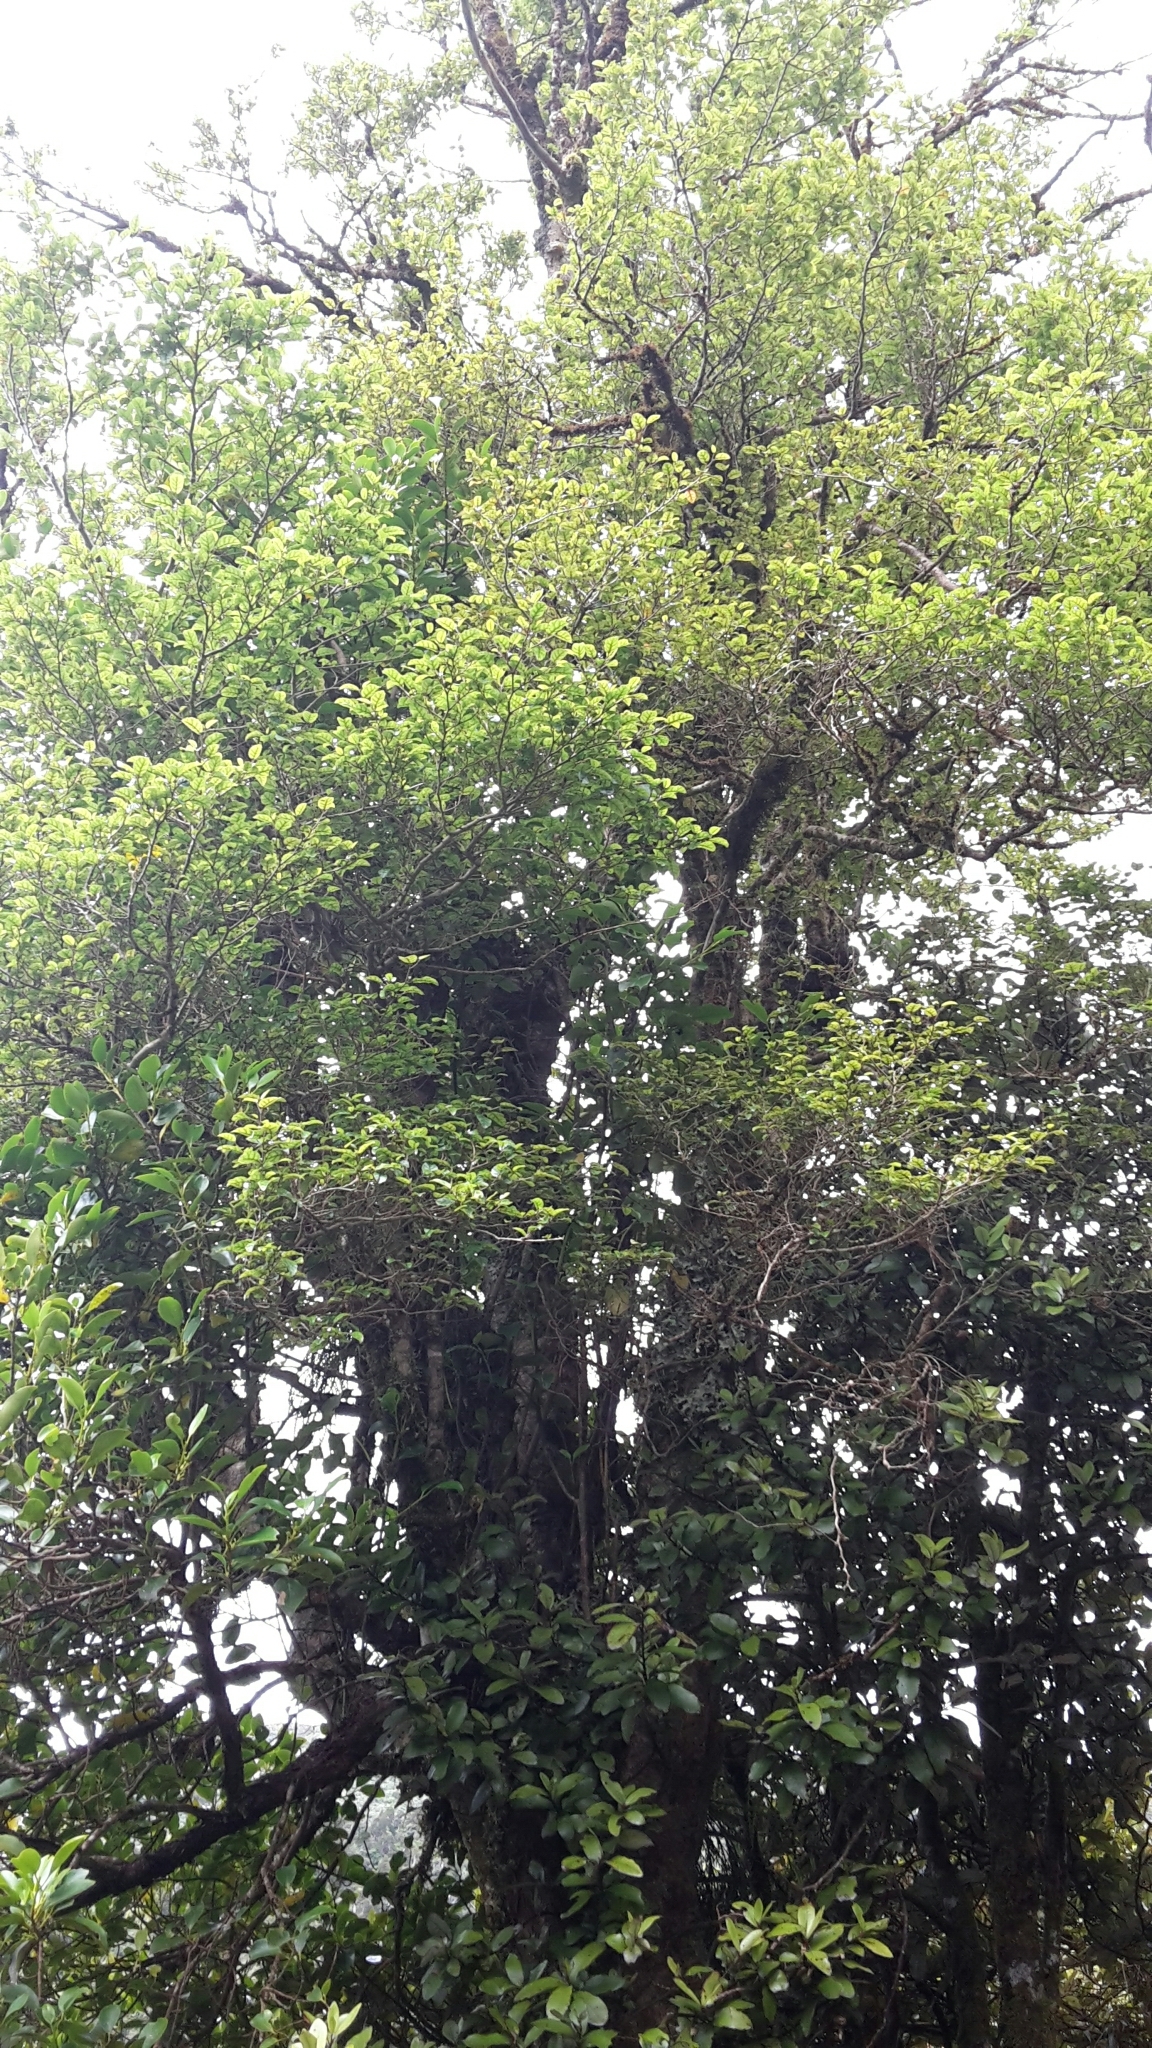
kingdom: Plantae
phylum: Tracheophyta
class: Magnoliopsida
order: Asterales
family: Rousseaceae
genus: Carpodetus
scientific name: Carpodetus serratus
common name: White mapau
